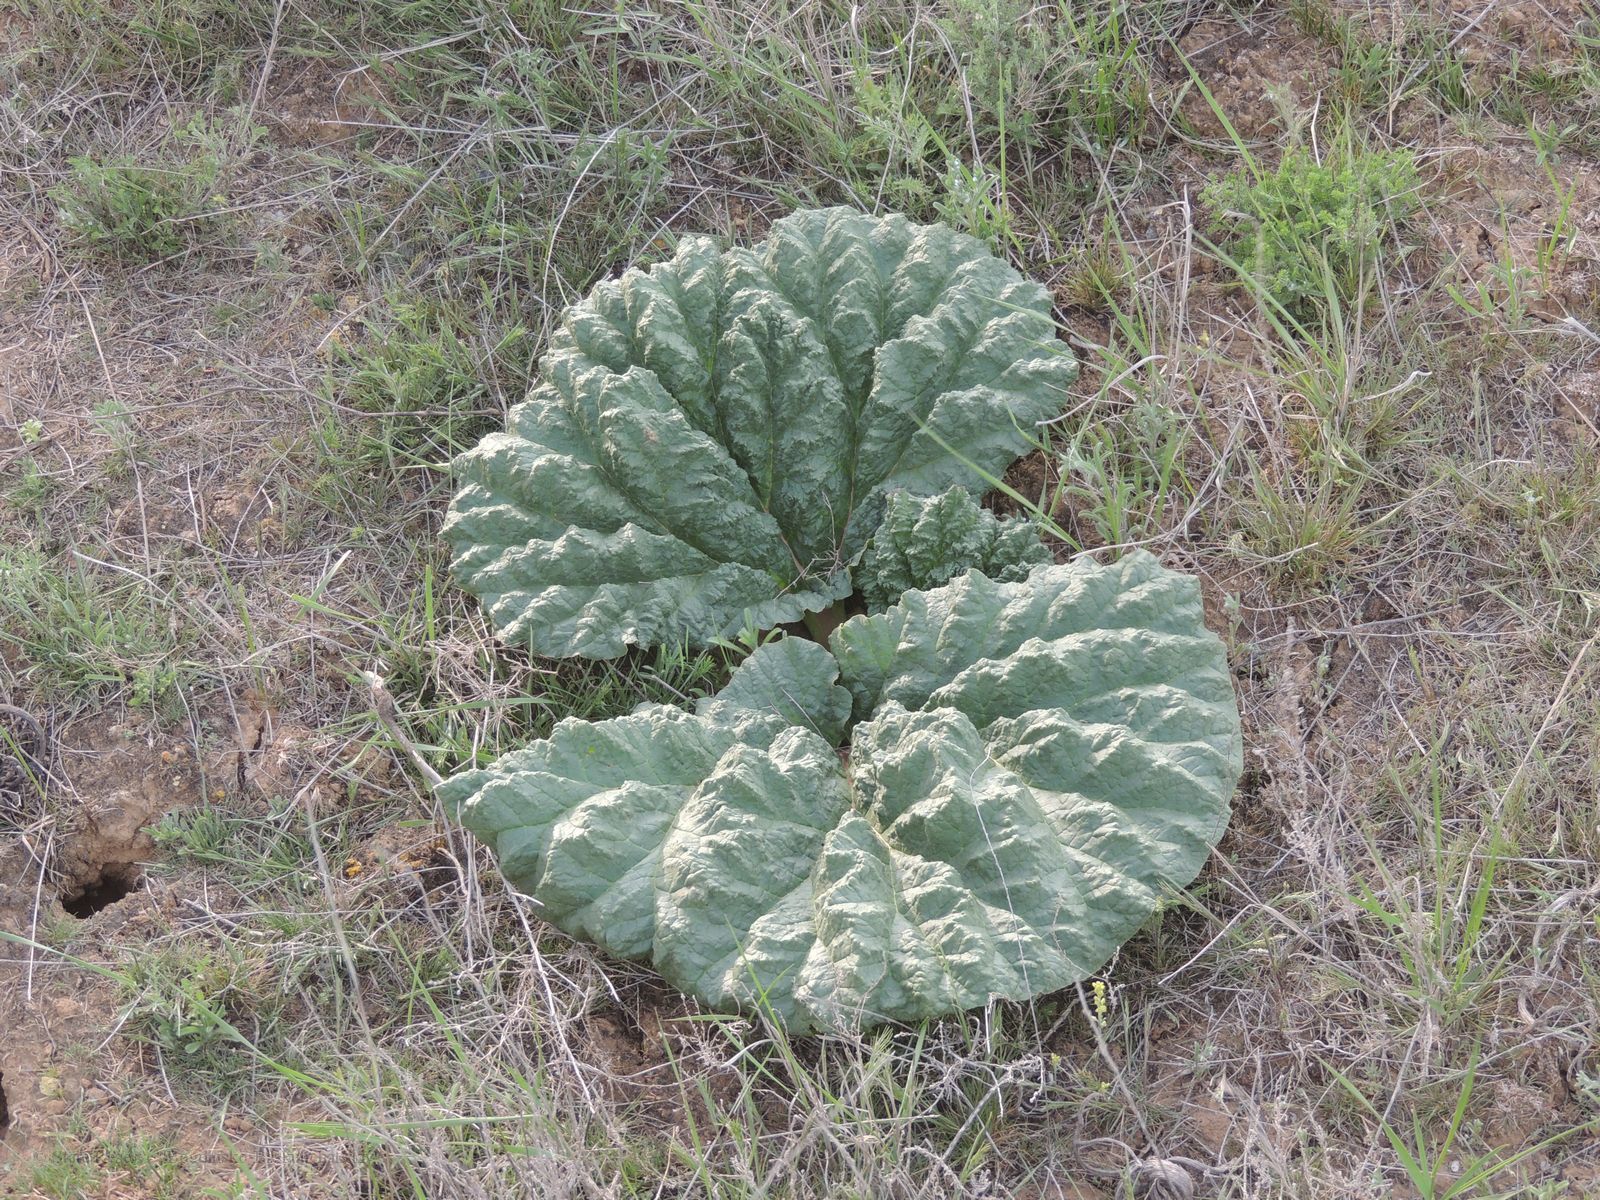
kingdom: Plantae
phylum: Tracheophyta
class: Magnoliopsida
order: Caryophyllales
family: Polygonaceae
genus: Rheum
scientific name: Rheum tataricum
